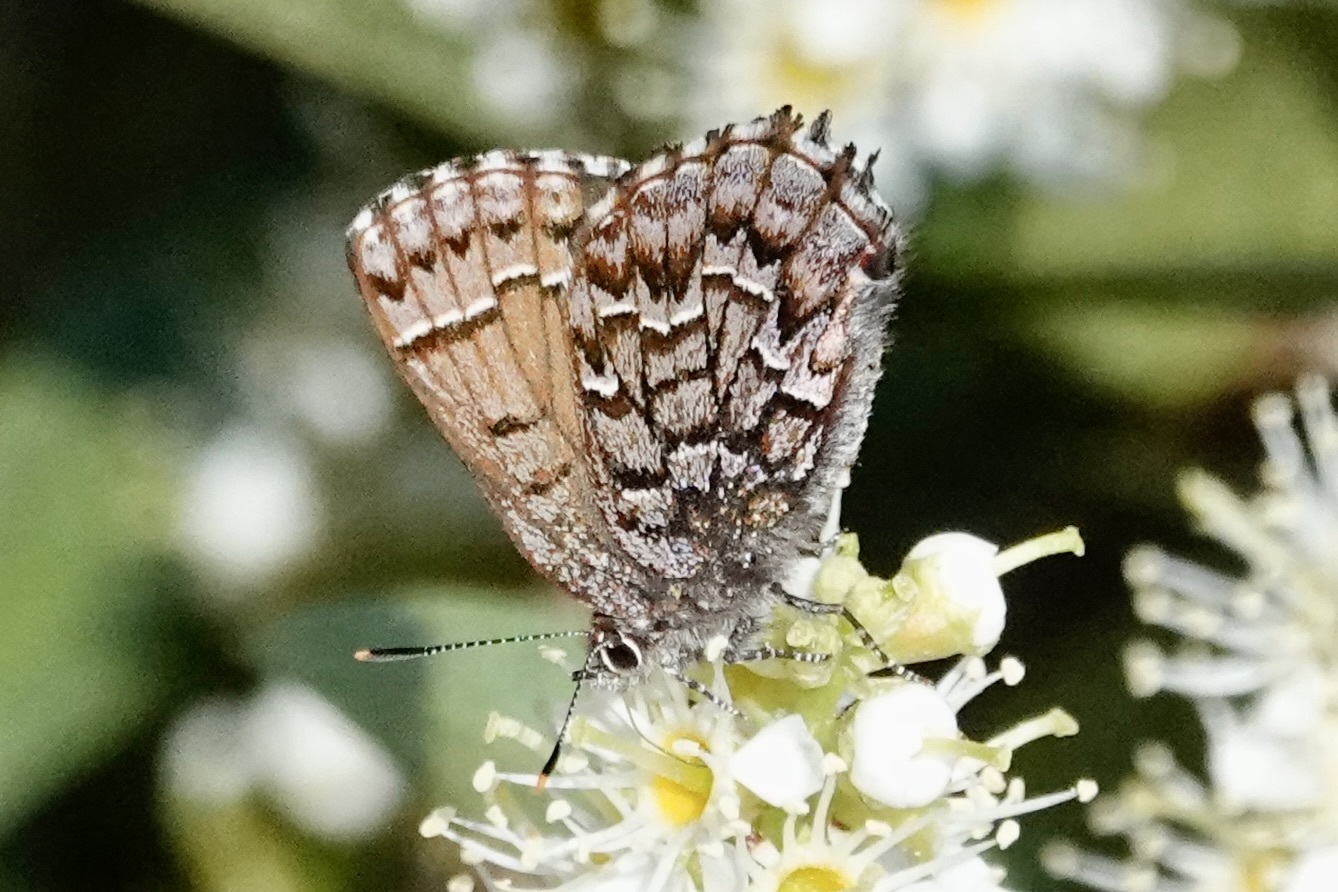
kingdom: Animalia
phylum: Arthropoda
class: Insecta
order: Lepidoptera
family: Lycaenidae
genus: Incisalia
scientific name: Incisalia niphon
